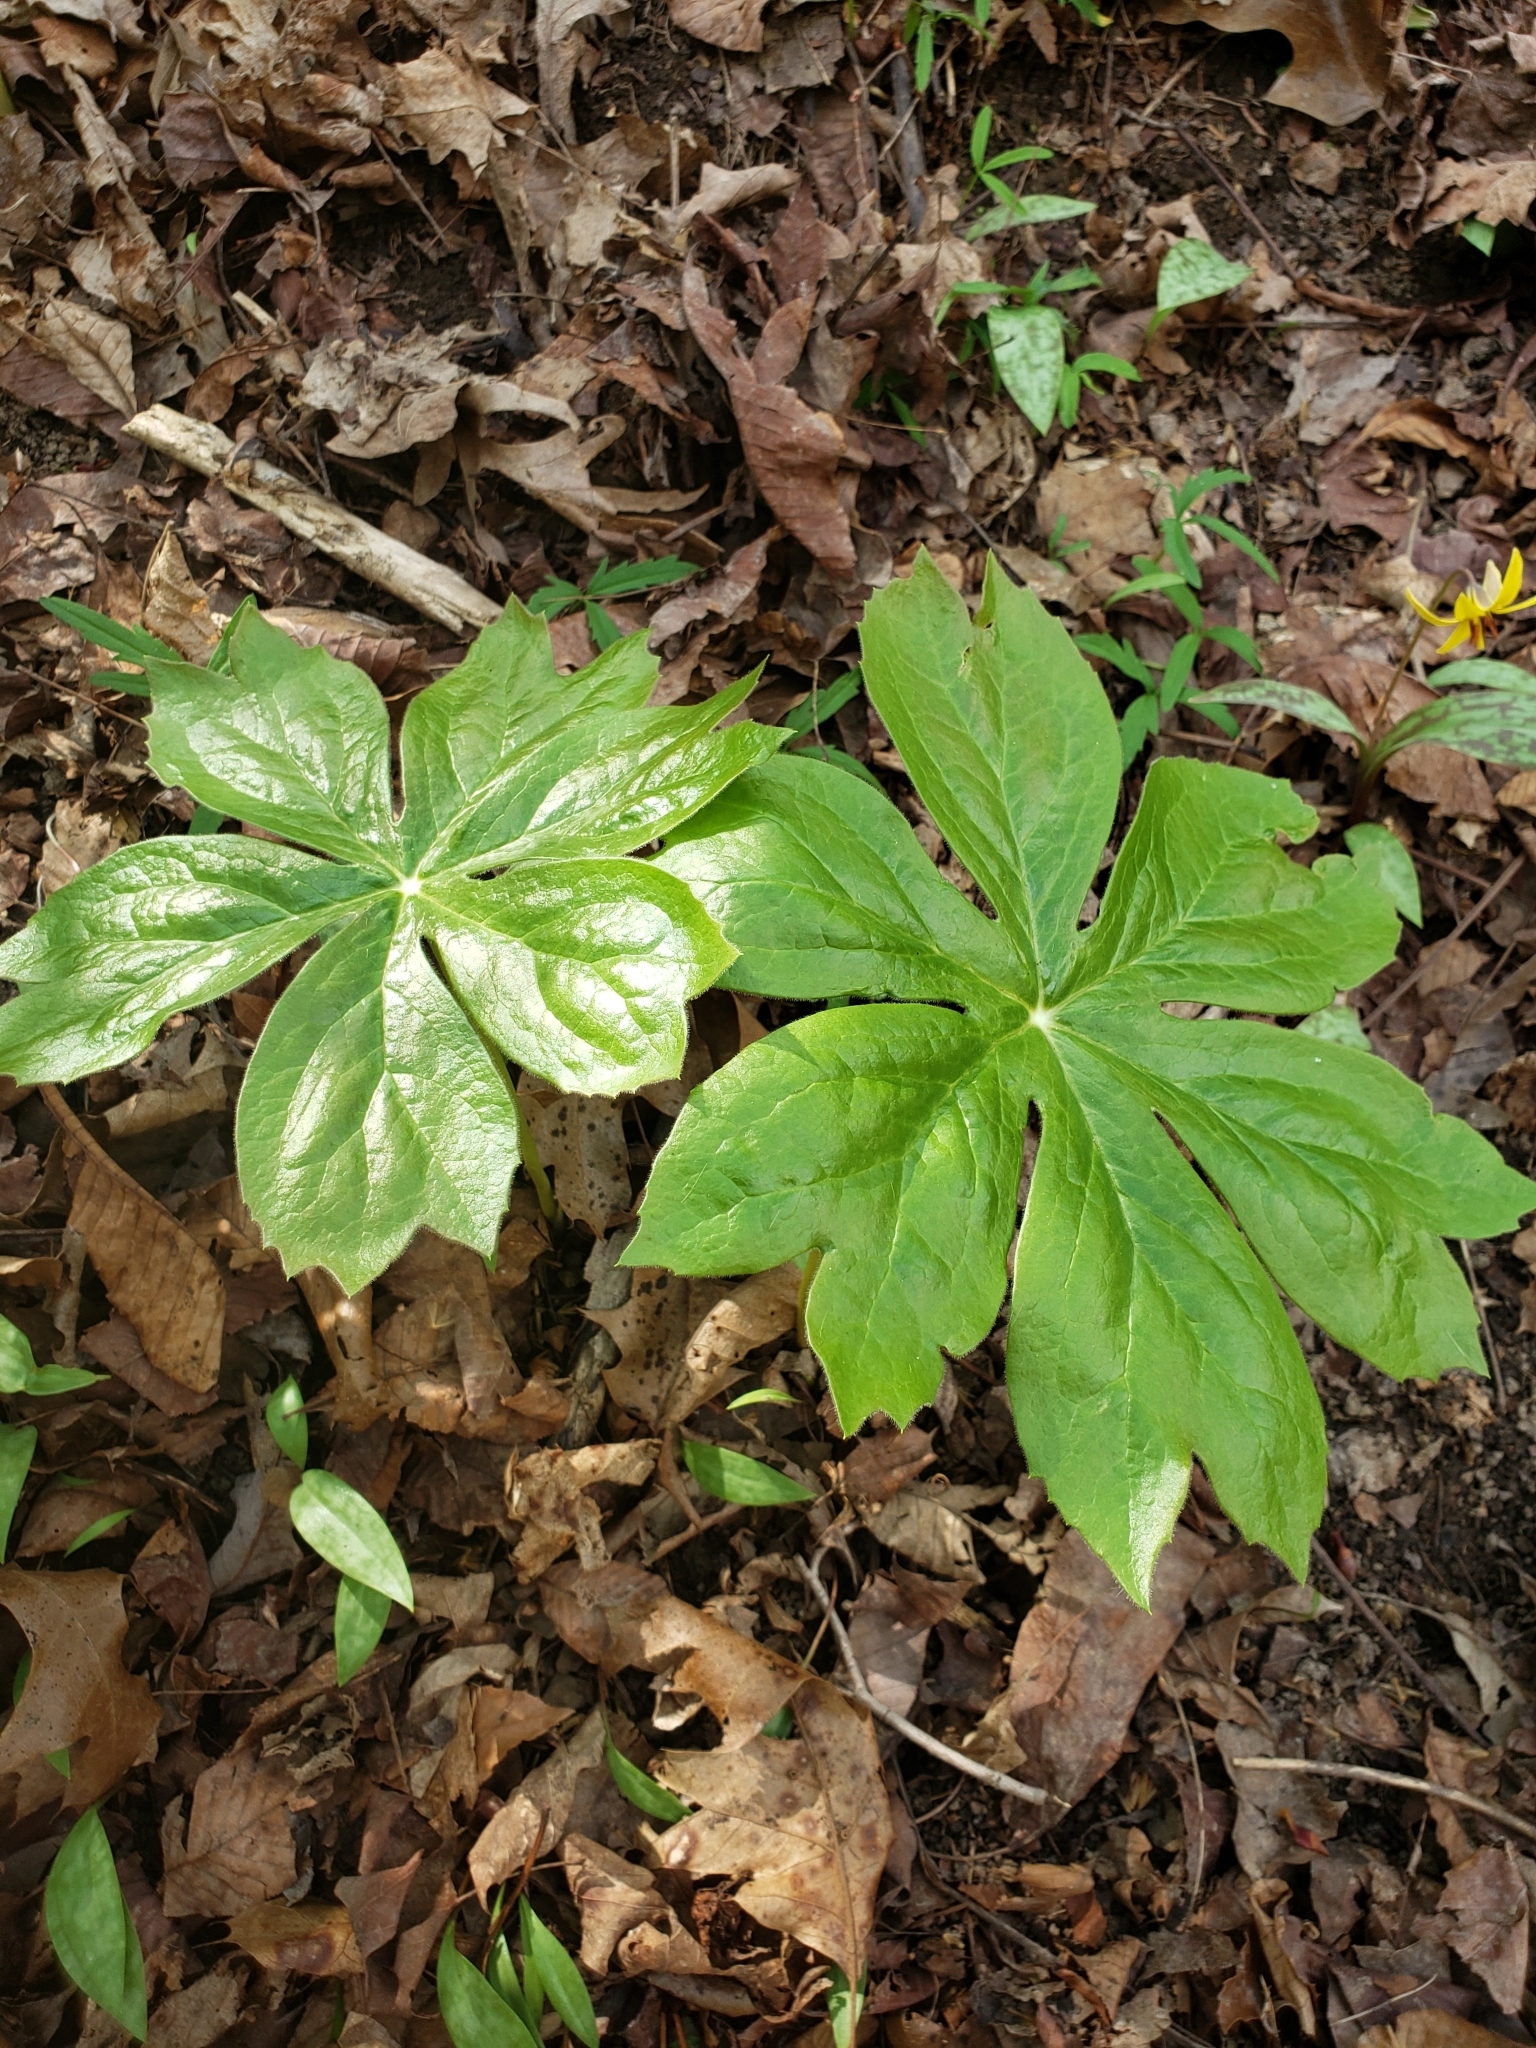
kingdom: Plantae
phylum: Tracheophyta
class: Magnoliopsida
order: Ranunculales
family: Berberidaceae
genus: Podophyllum
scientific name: Podophyllum peltatum
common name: Wild mandrake
